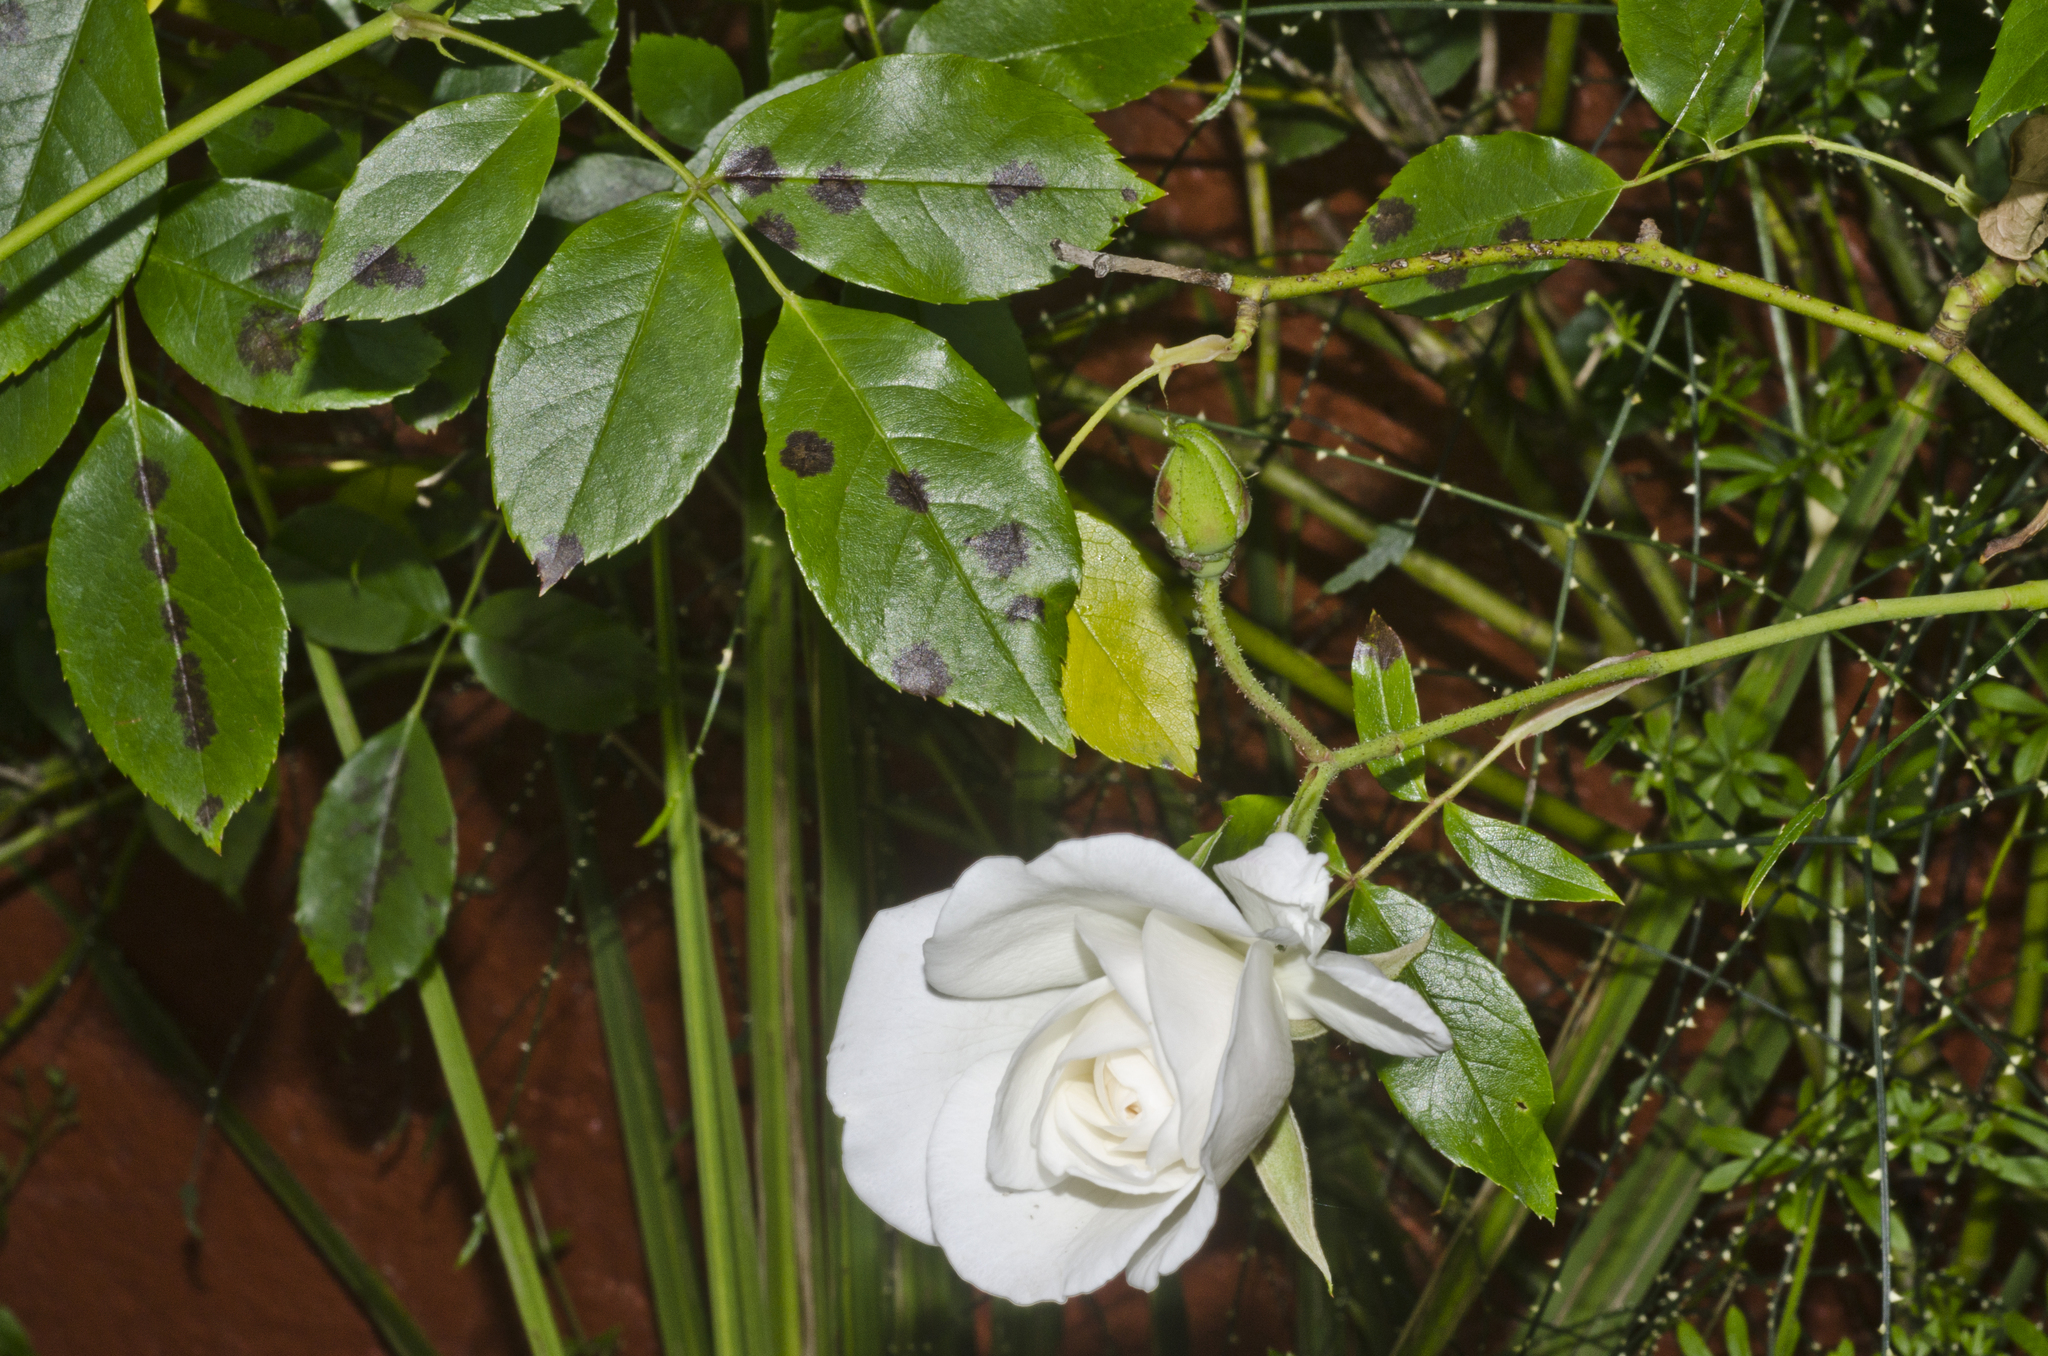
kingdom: Fungi
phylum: Ascomycota
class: Leotiomycetes
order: Helotiales
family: Drepanopezizaceae
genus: Diplocarpon
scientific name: Diplocarpon rosae
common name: Rose black-spot
